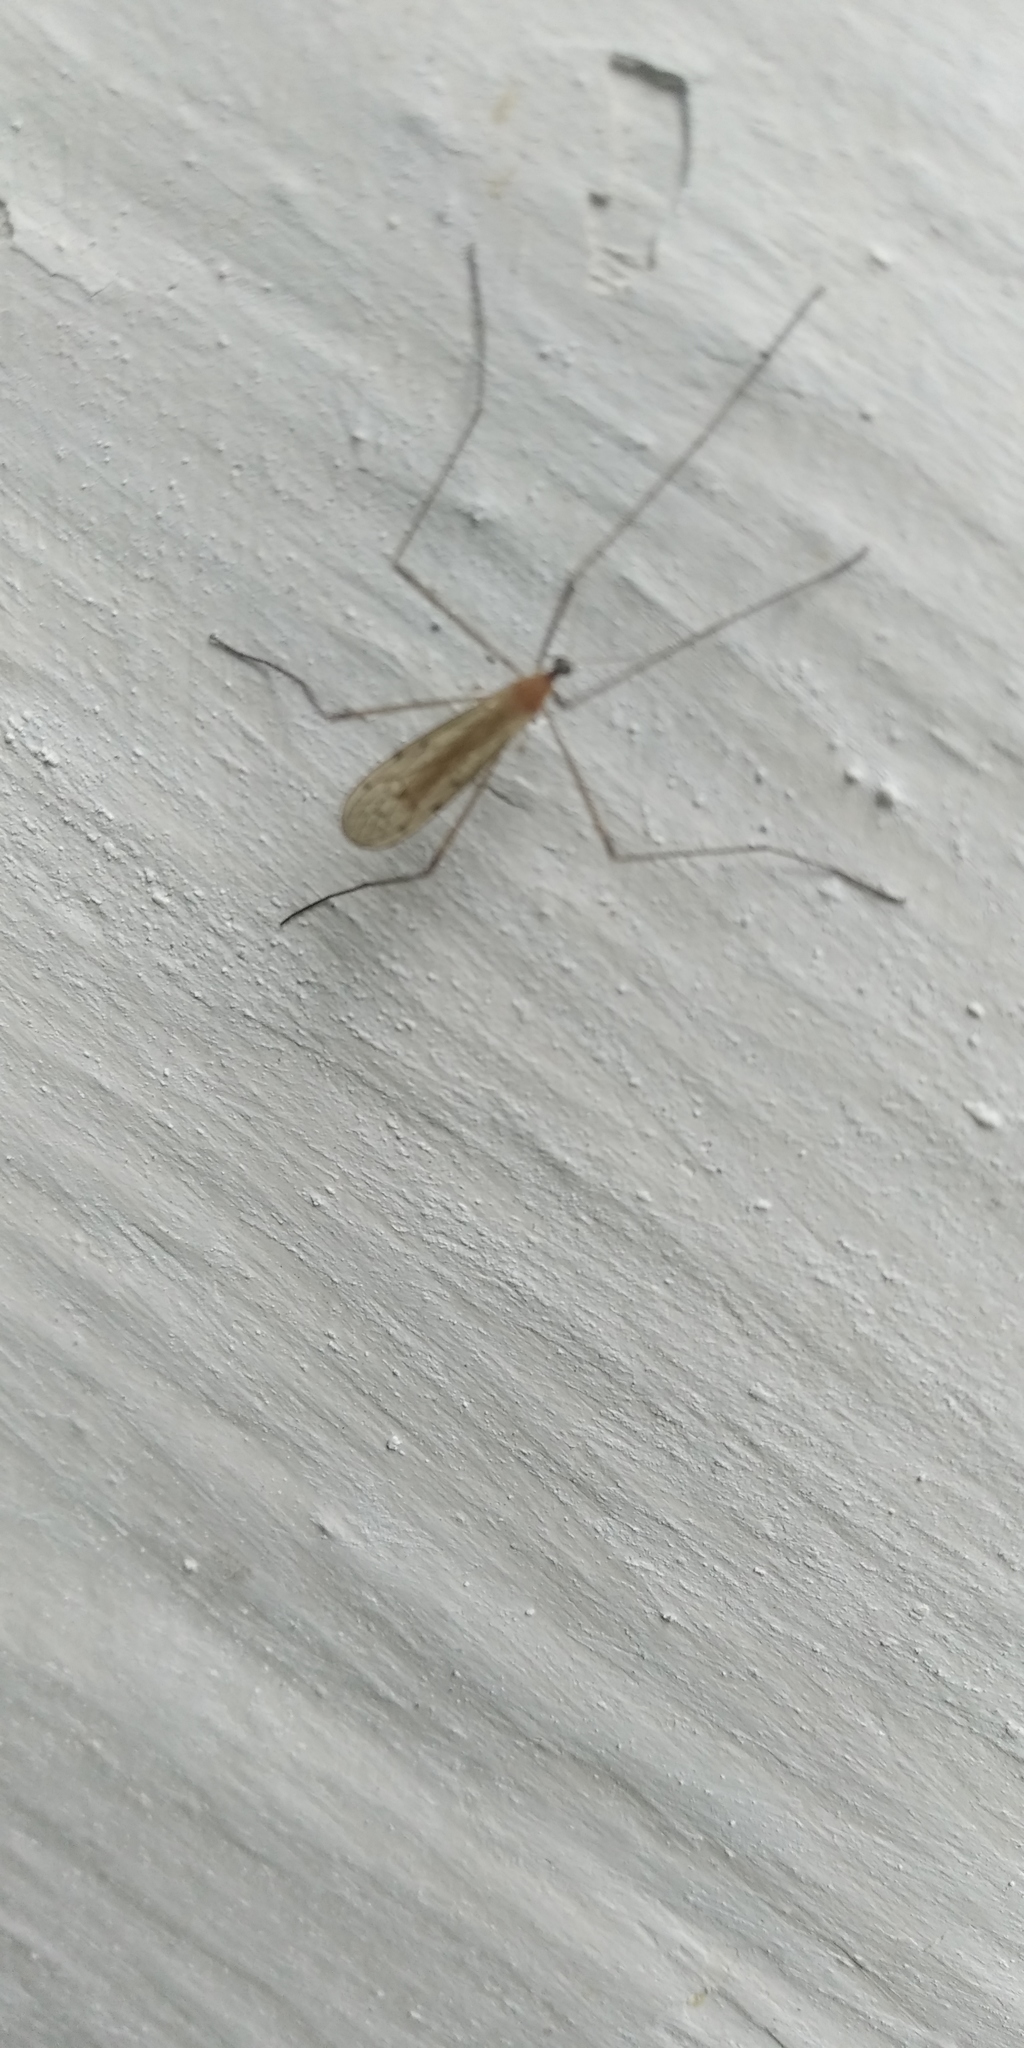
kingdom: Animalia
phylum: Arthropoda
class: Insecta
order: Diptera
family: Limoniidae
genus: Limonia
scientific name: Limonia phragmitidis
